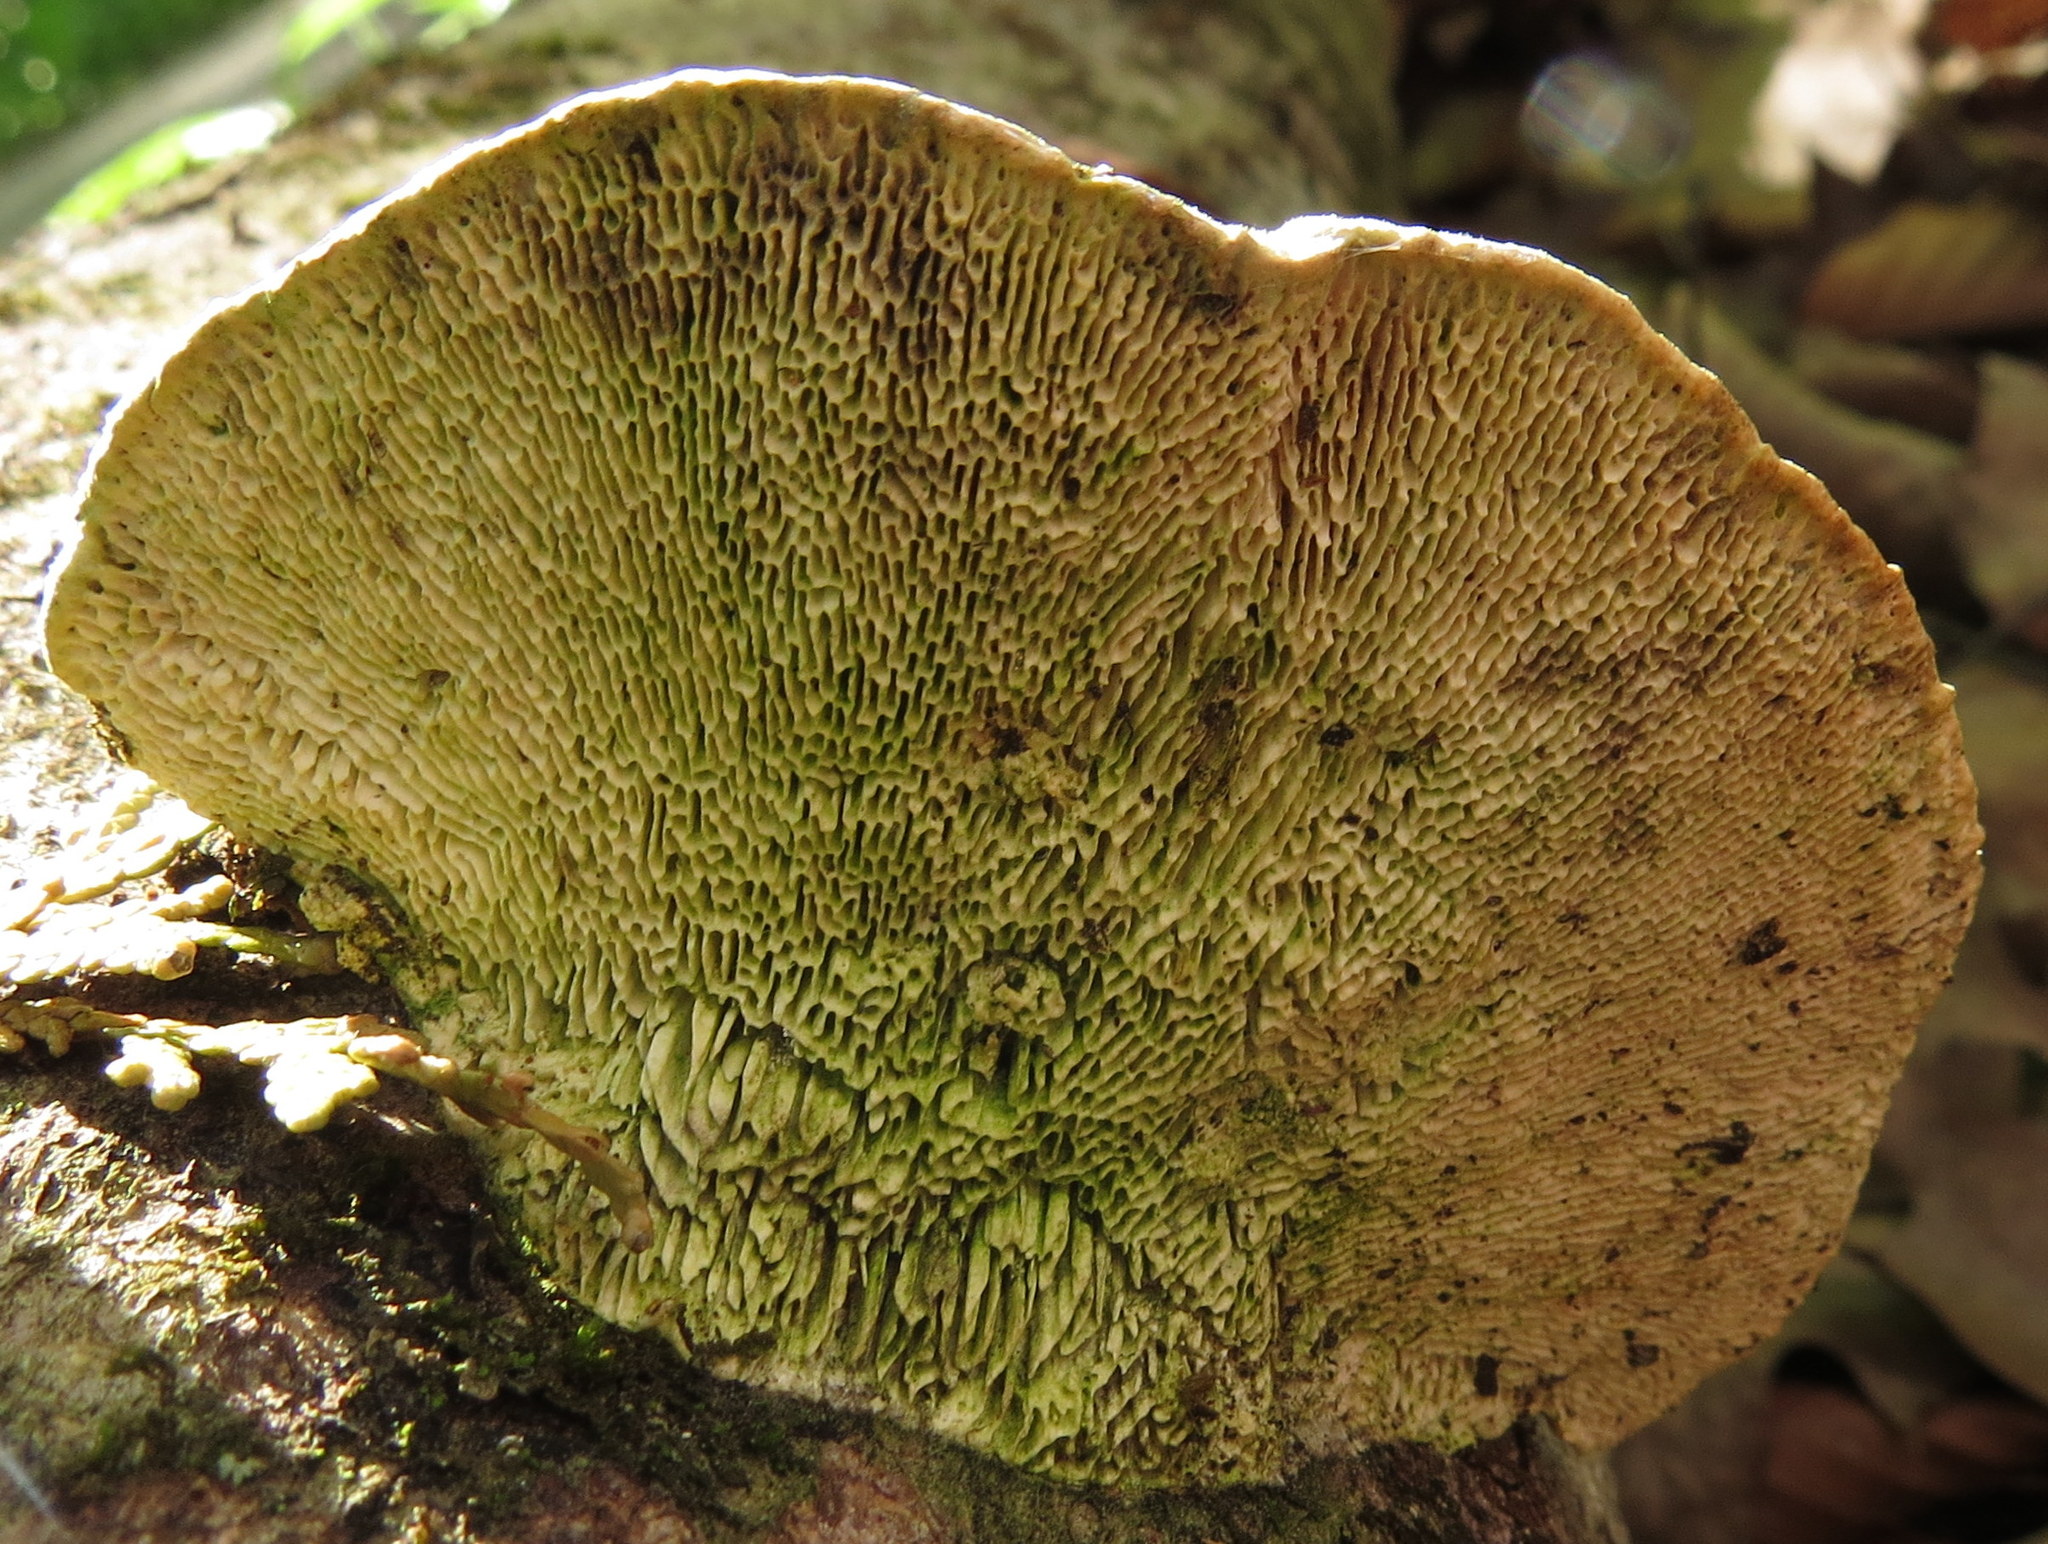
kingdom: Fungi
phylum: Basidiomycota
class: Agaricomycetes
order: Polyporales
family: Polyporaceae
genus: Trametes
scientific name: Trametes gibbosa
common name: Lumpy bracket
